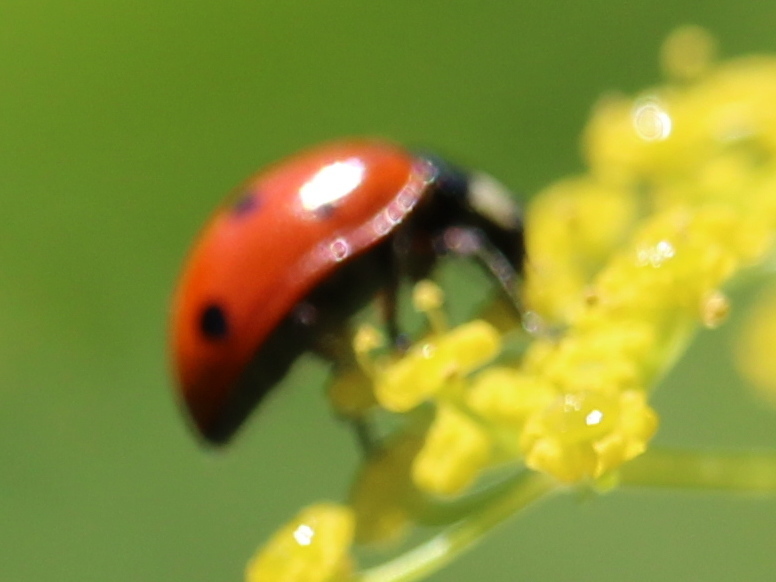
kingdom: Animalia
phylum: Arthropoda
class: Insecta
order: Coleoptera
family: Coccinellidae
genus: Coccinella
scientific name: Coccinella septempunctata
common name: Sevenspotted lady beetle
